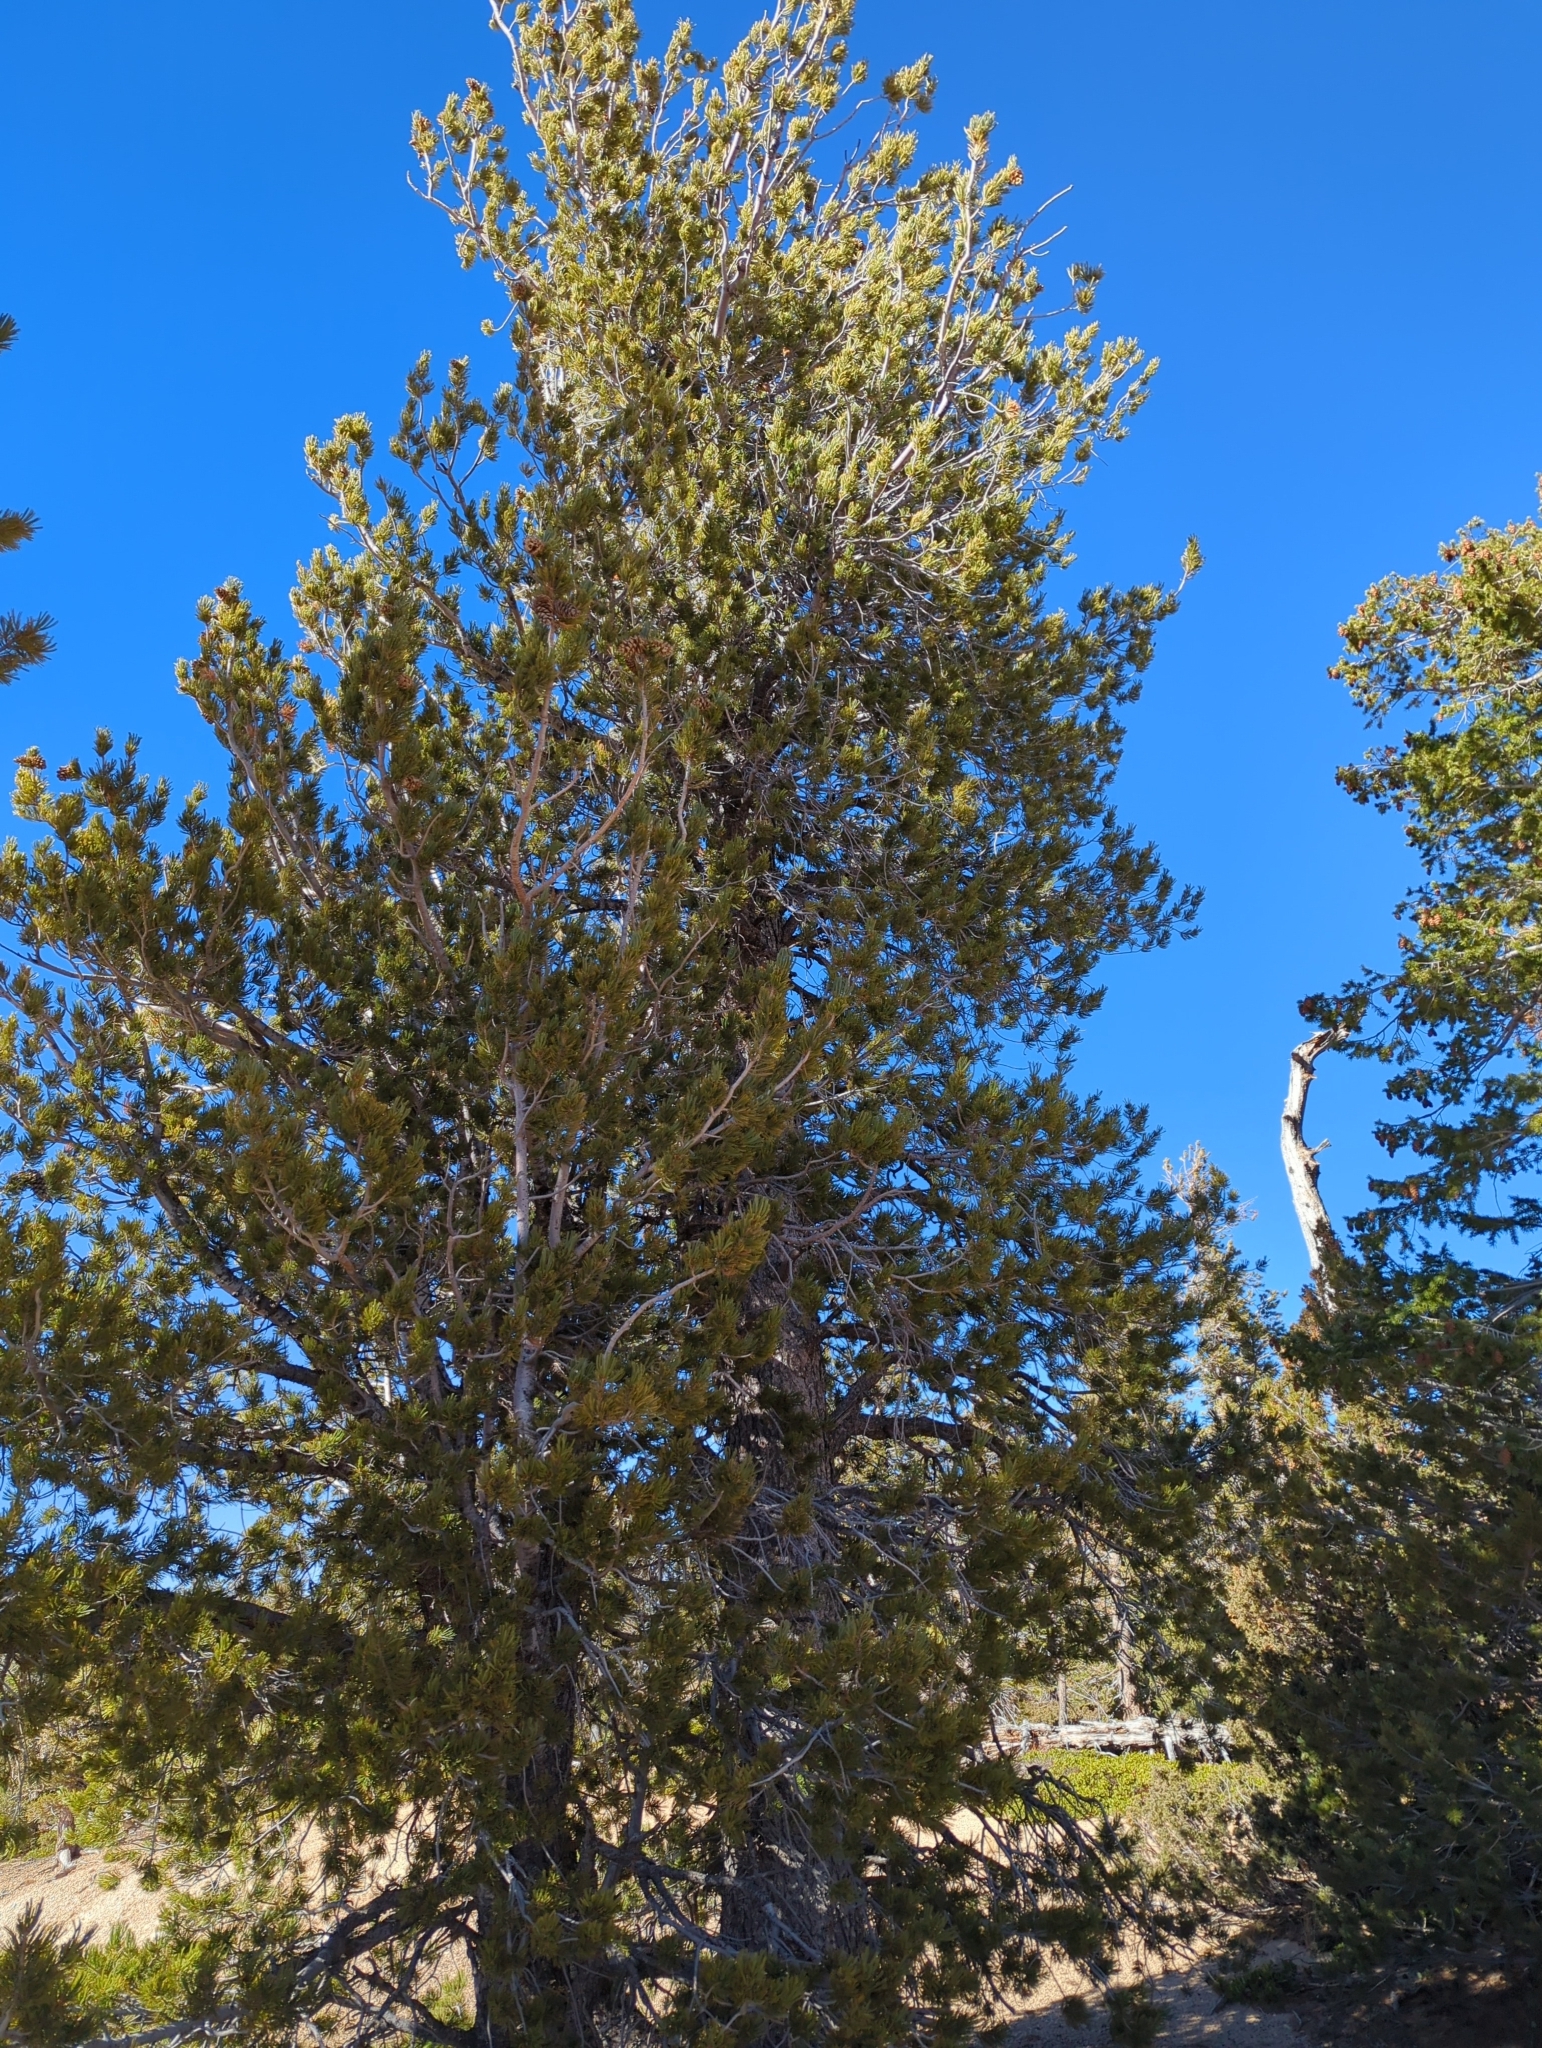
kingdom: Plantae
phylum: Tracheophyta
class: Pinopsida
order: Pinales
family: Pinaceae
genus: Pinus
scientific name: Pinus flexilis
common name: Limber pine
